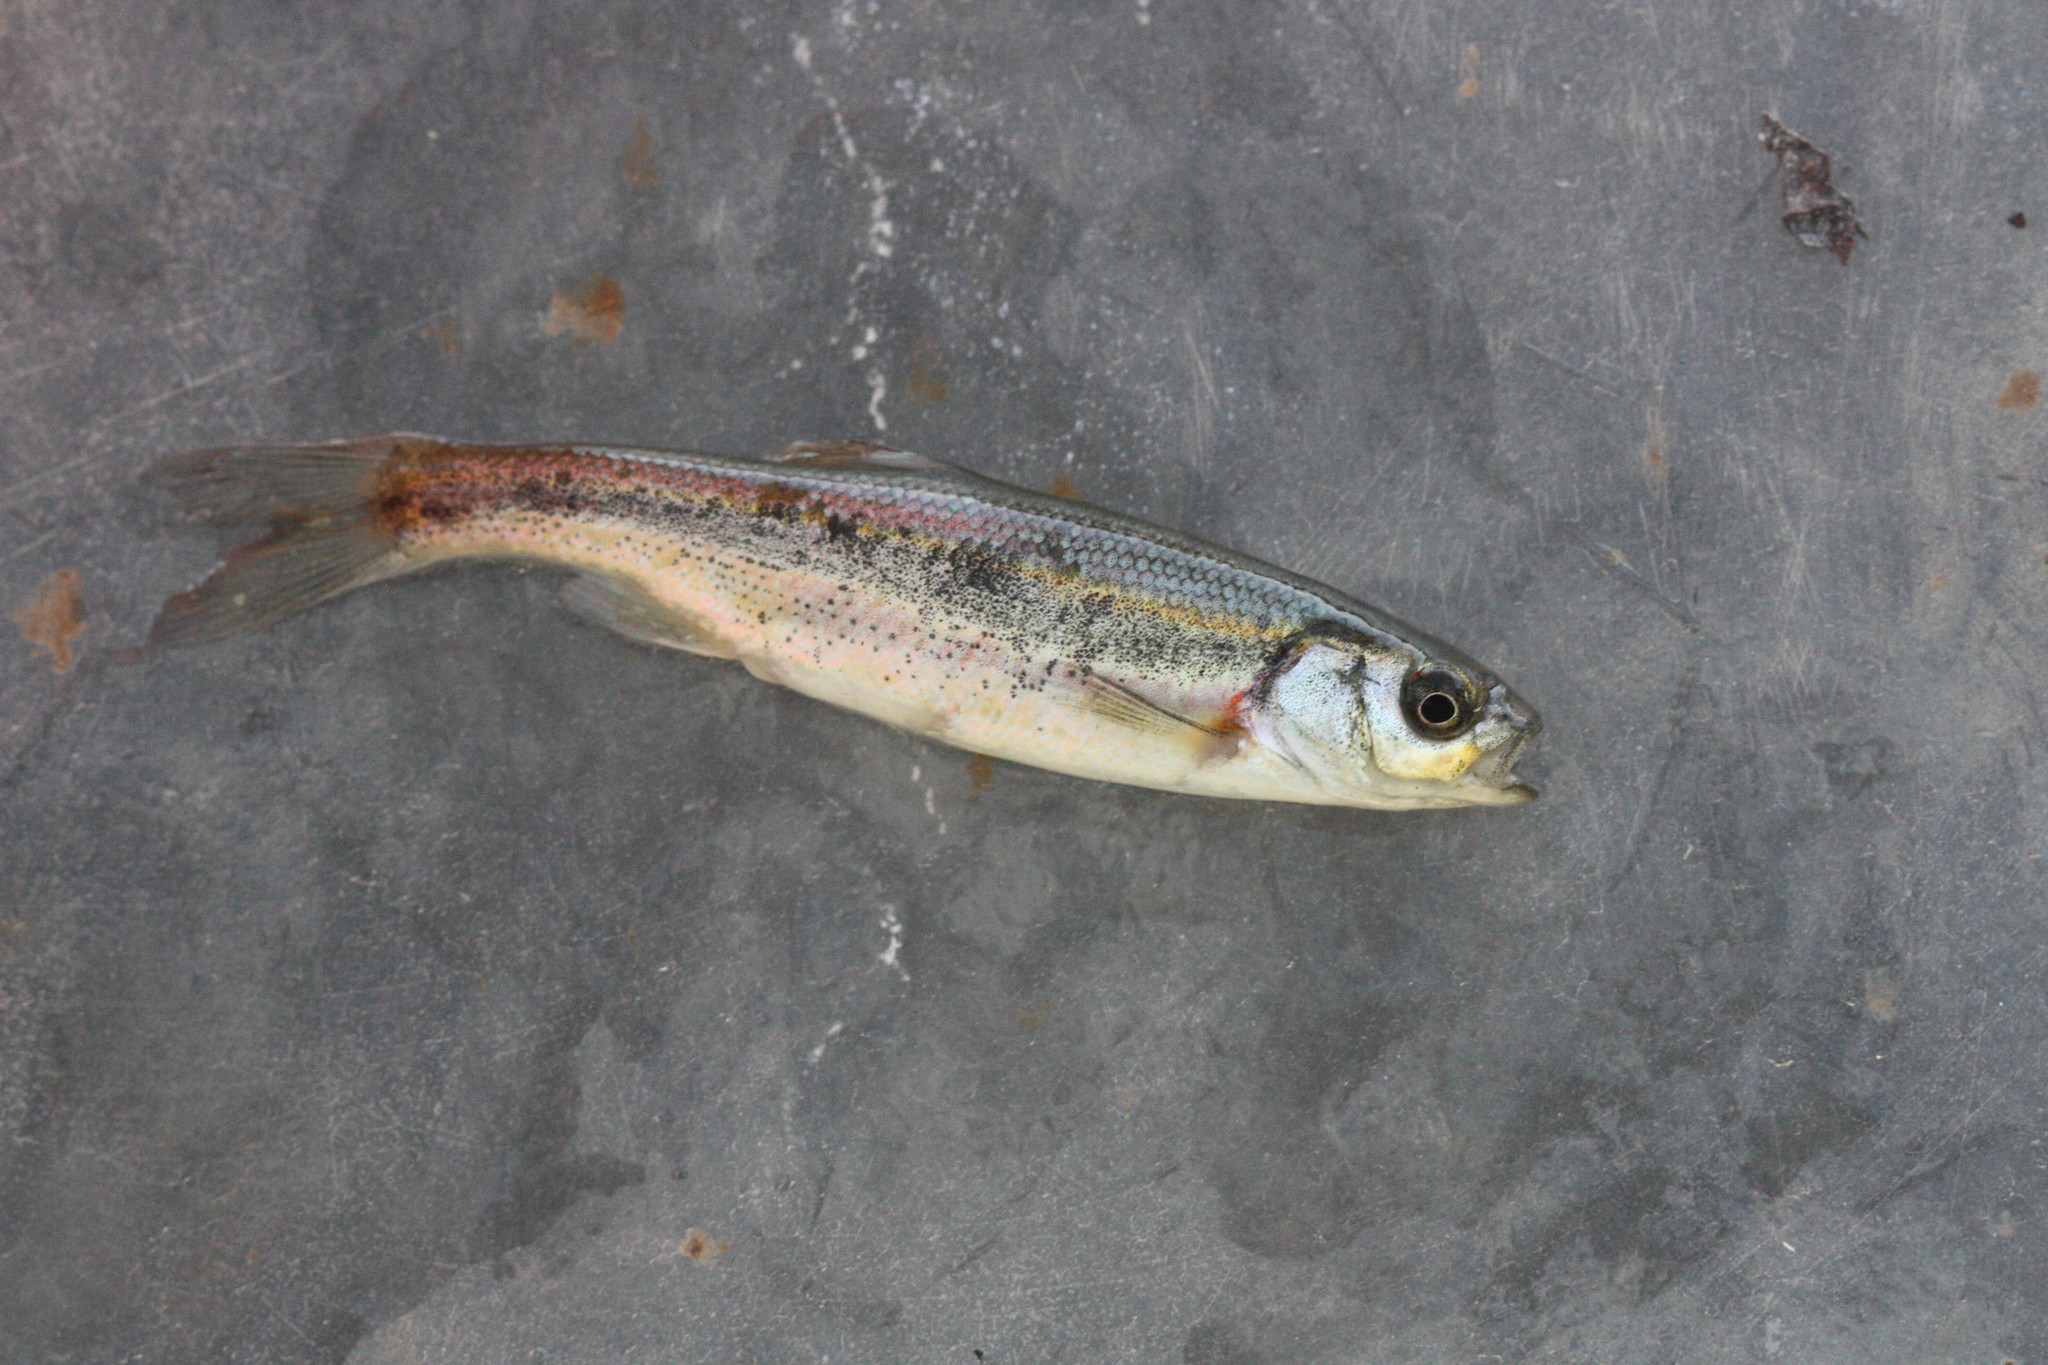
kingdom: Animalia
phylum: Chordata
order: Cypriniformes
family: Cyprinidae
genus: Richardsonius
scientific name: Richardsonius egregius
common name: Lahontan redside
